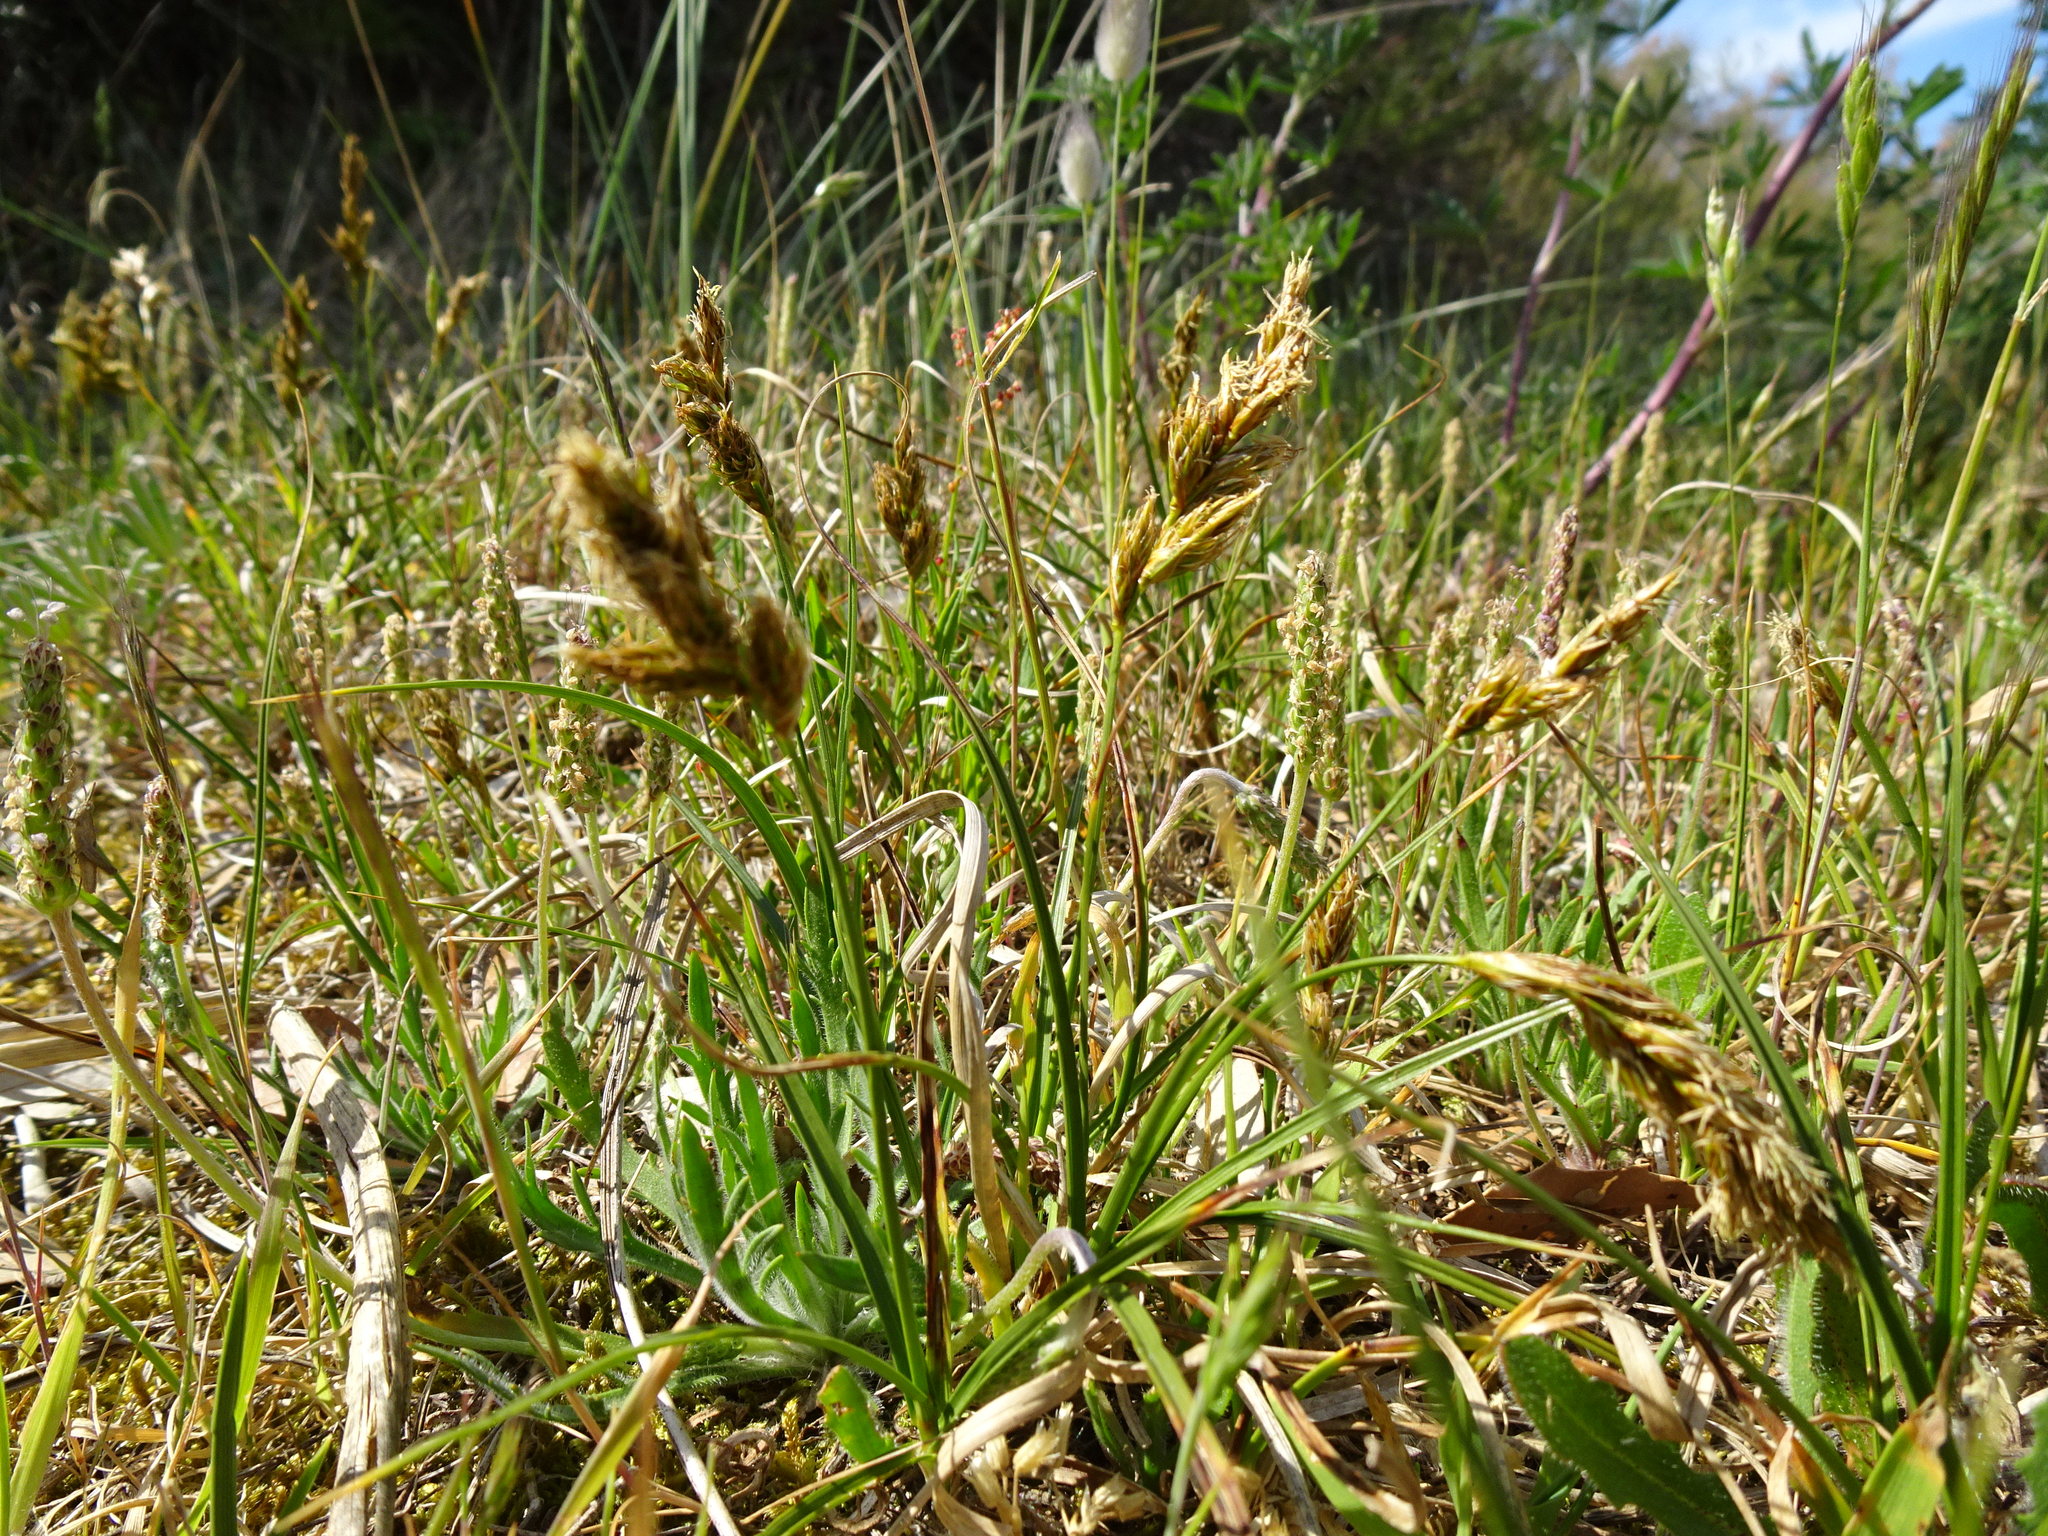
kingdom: Plantae
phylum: Tracheophyta
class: Liliopsida
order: Poales
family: Cyperaceae
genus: Carex
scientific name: Carex arenaria
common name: Sand sedge
